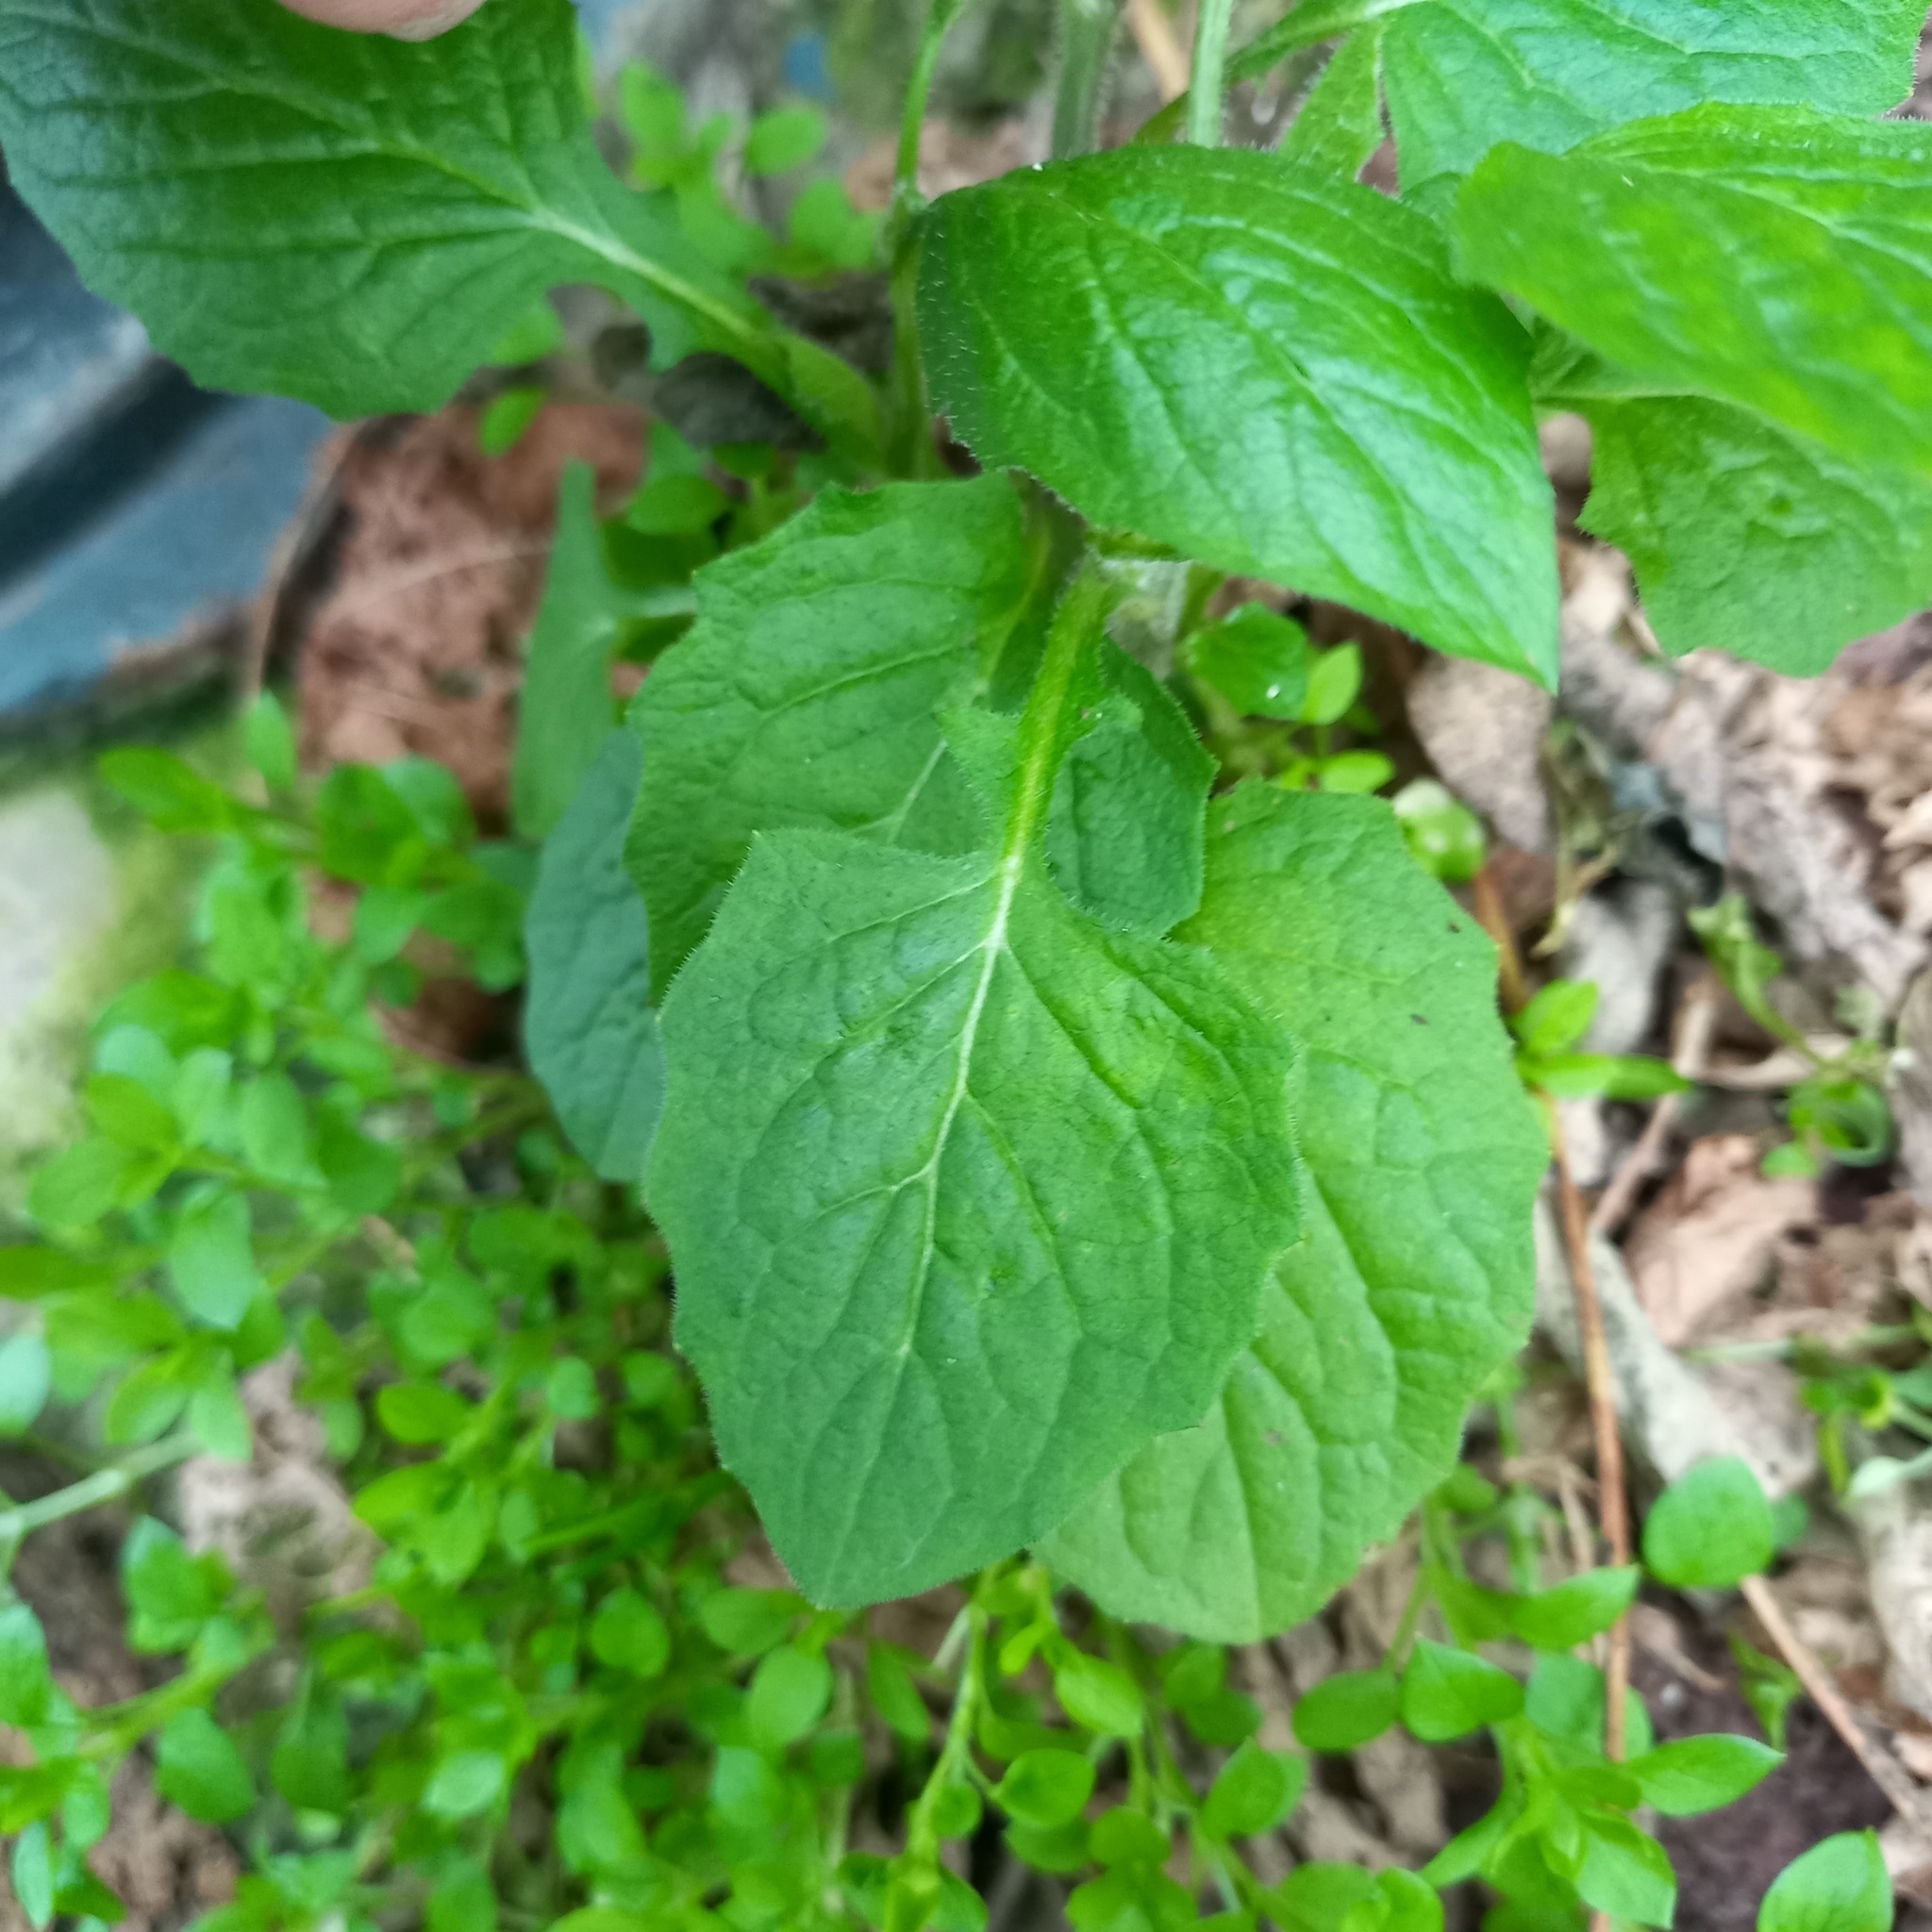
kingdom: Plantae
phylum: Tracheophyta
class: Magnoliopsida
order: Asterales
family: Asteraceae
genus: Lapsana
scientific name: Lapsana communis
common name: Nipplewort
